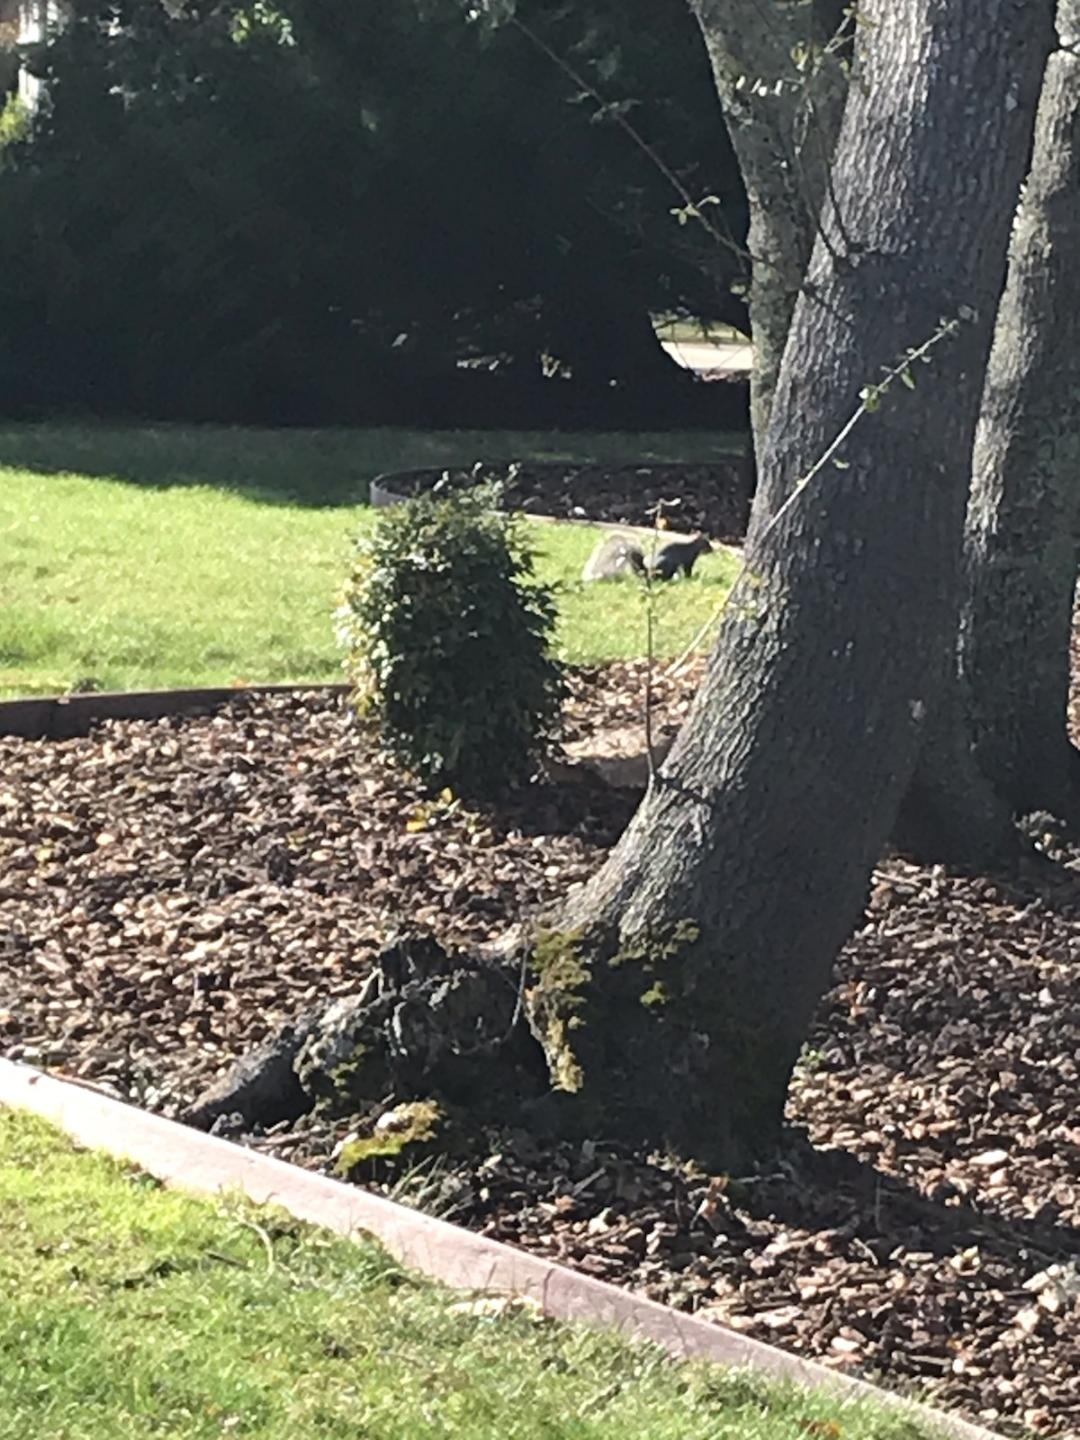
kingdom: Animalia
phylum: Chordata
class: Mammalia
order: Rodentia
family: Sciuridae
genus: Sciurus
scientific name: Sciurus griseus
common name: Western gray squirrel
